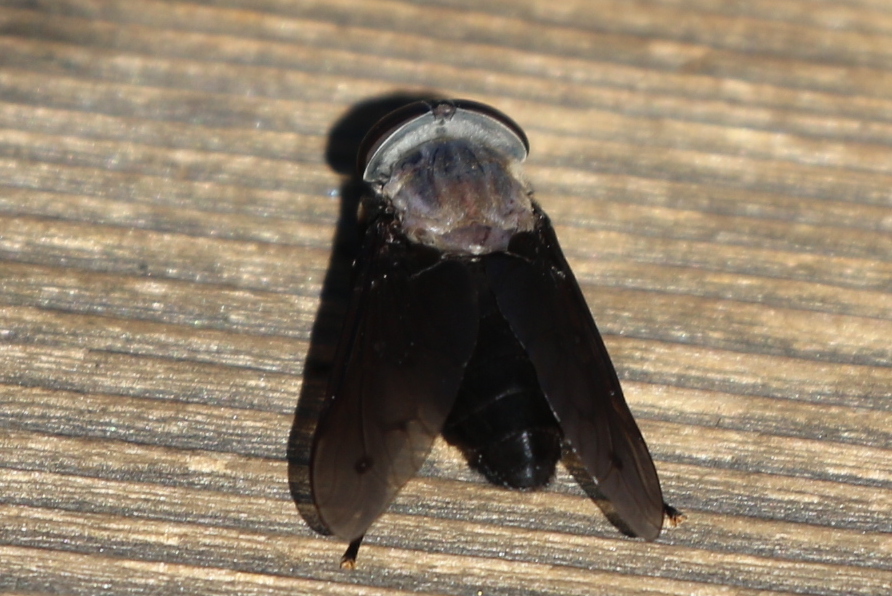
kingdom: Animalia
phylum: Arthropoda
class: Insecta
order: Diptera
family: Tabanidae
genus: Tabanus
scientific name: Tabanus punctifer
